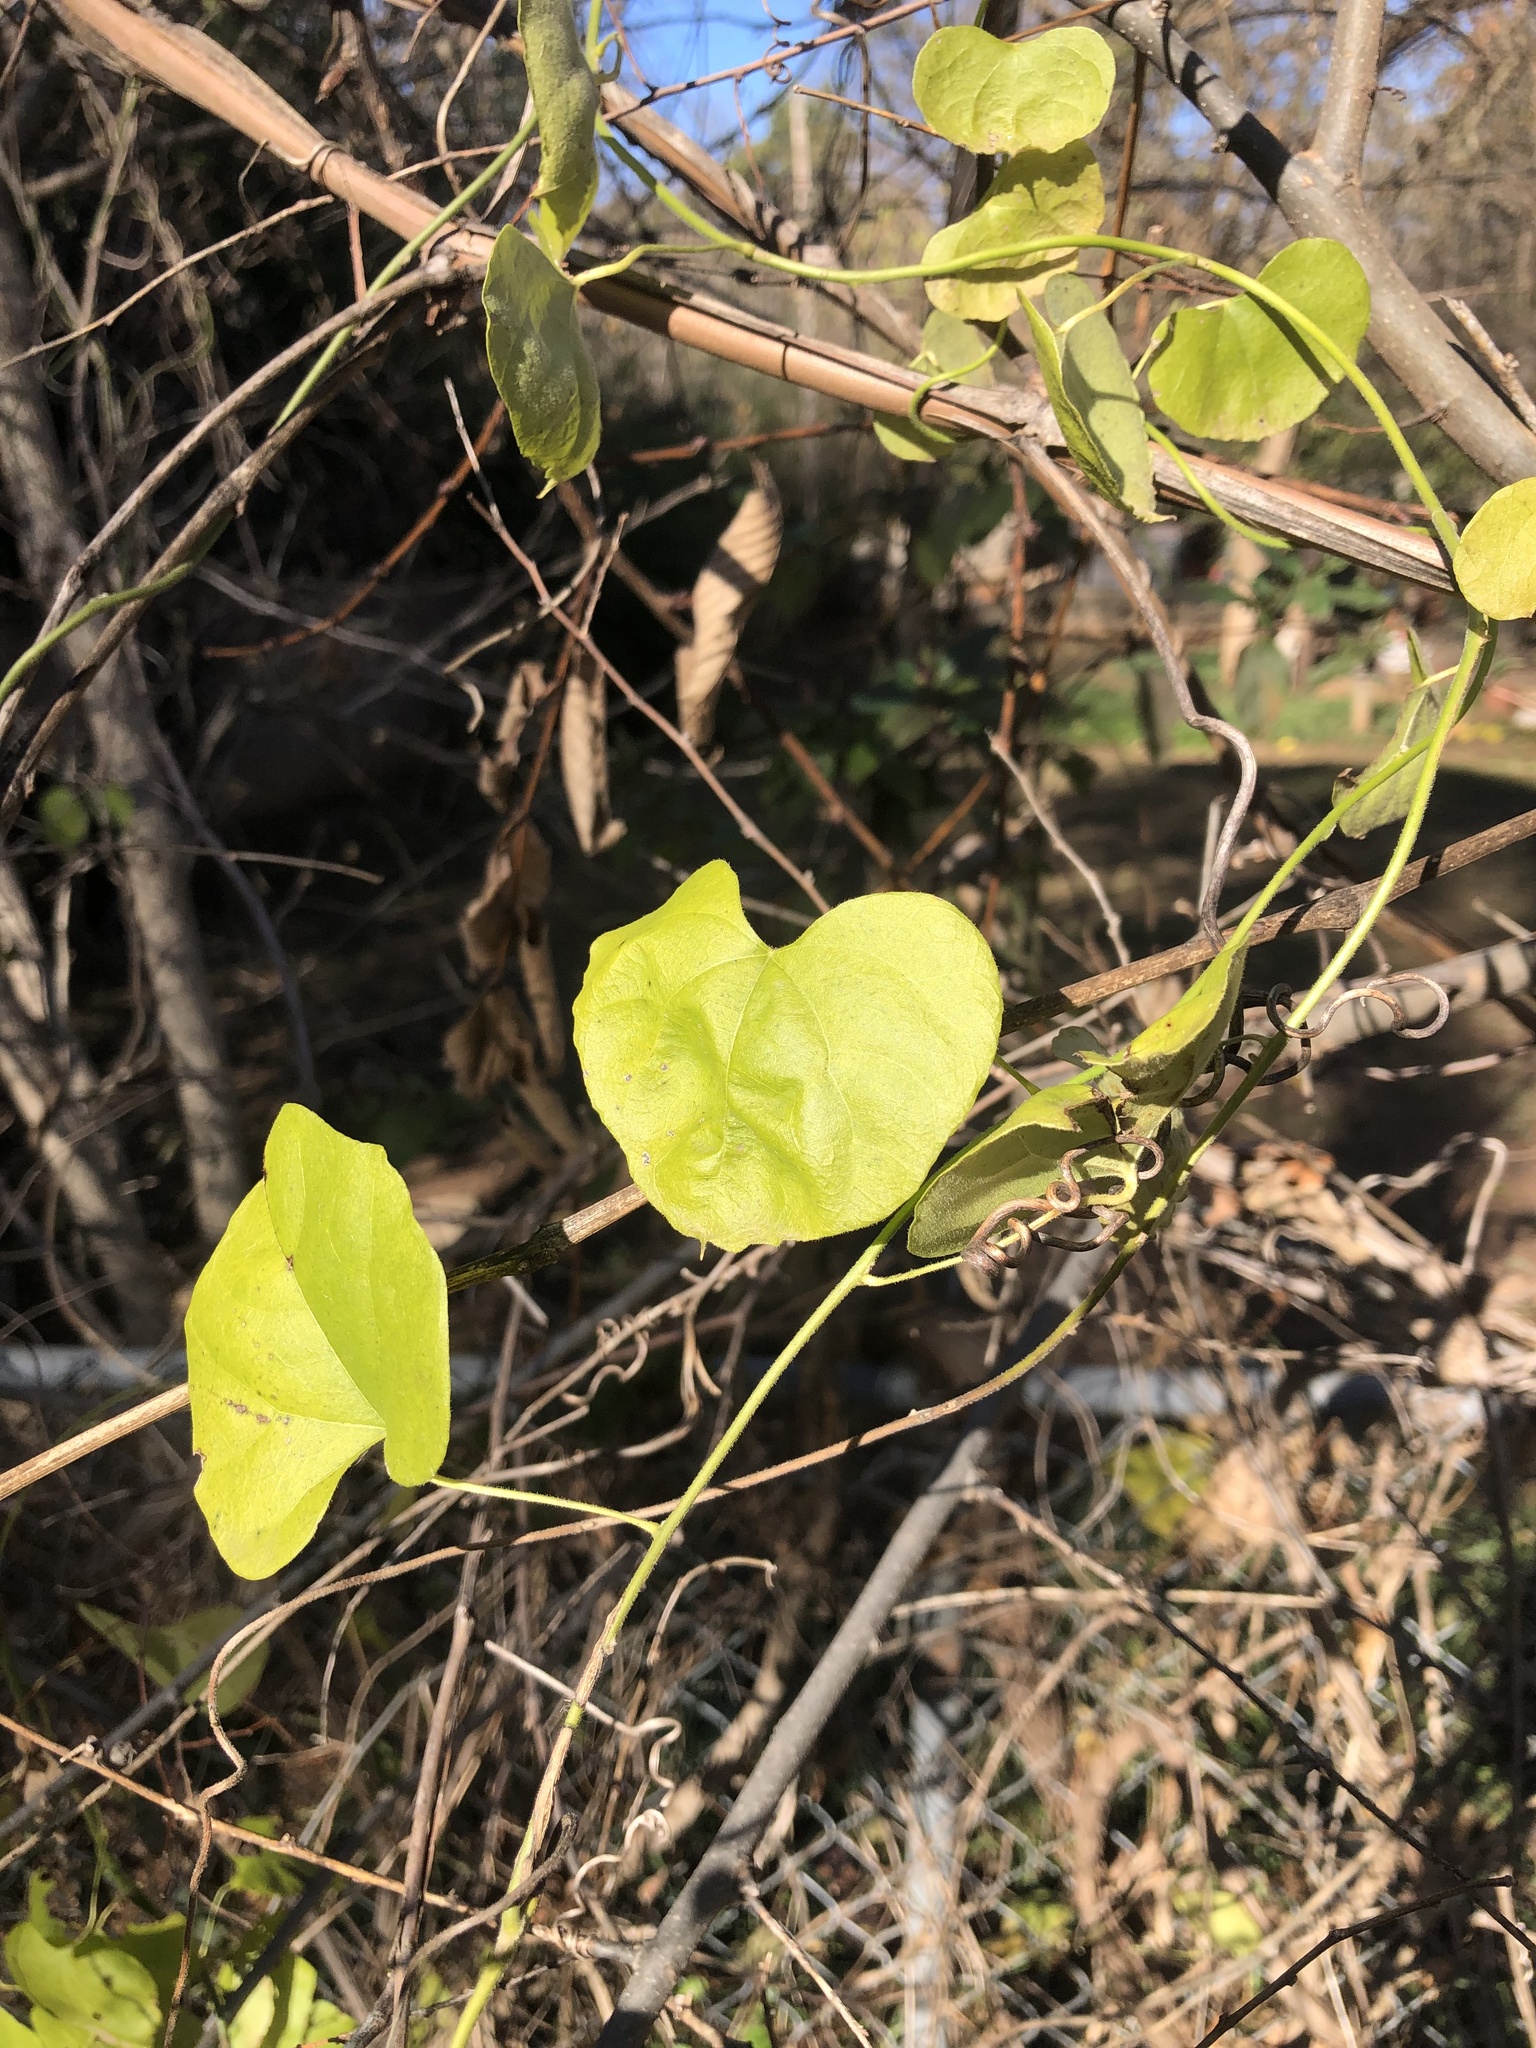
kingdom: Plantae
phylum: Tracheophyta
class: Magnoliopsida
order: Ranunculales
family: Menispermaceae
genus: Cocculus
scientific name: Cocculus carolinus
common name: Carolina moonseed
